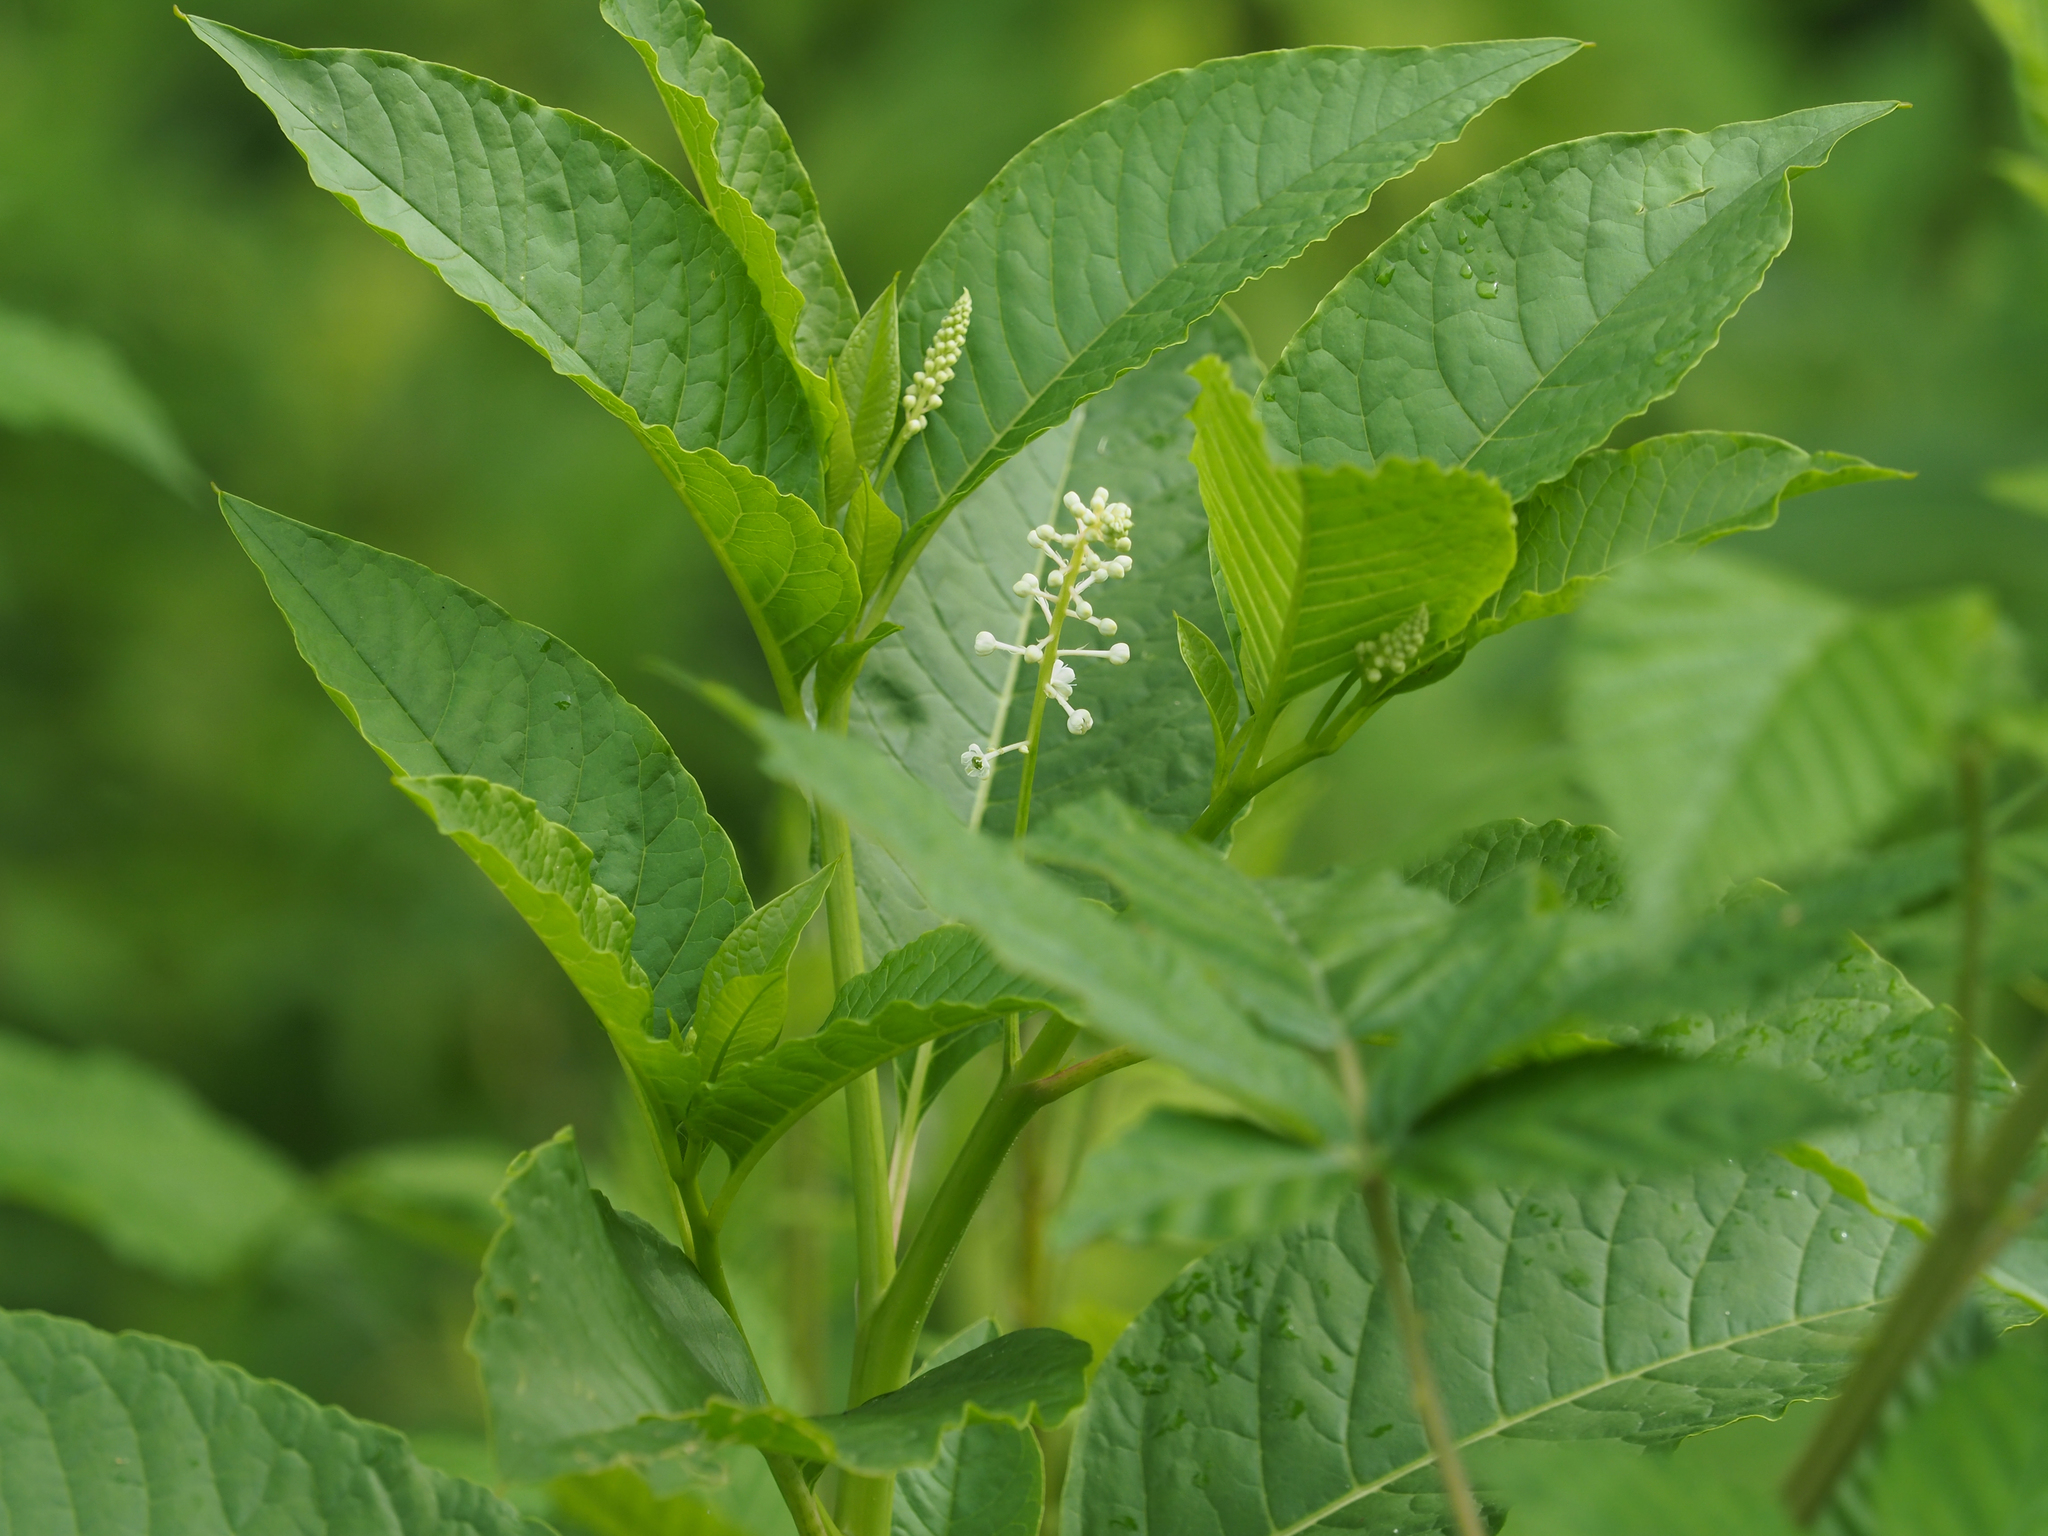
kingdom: Plantae
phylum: Tracheophyta
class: Magnoliopsida
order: Caryophyllales
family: Phytolaccaceae
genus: Phytolacca
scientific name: Phytolacca americana
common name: American pokeweed
